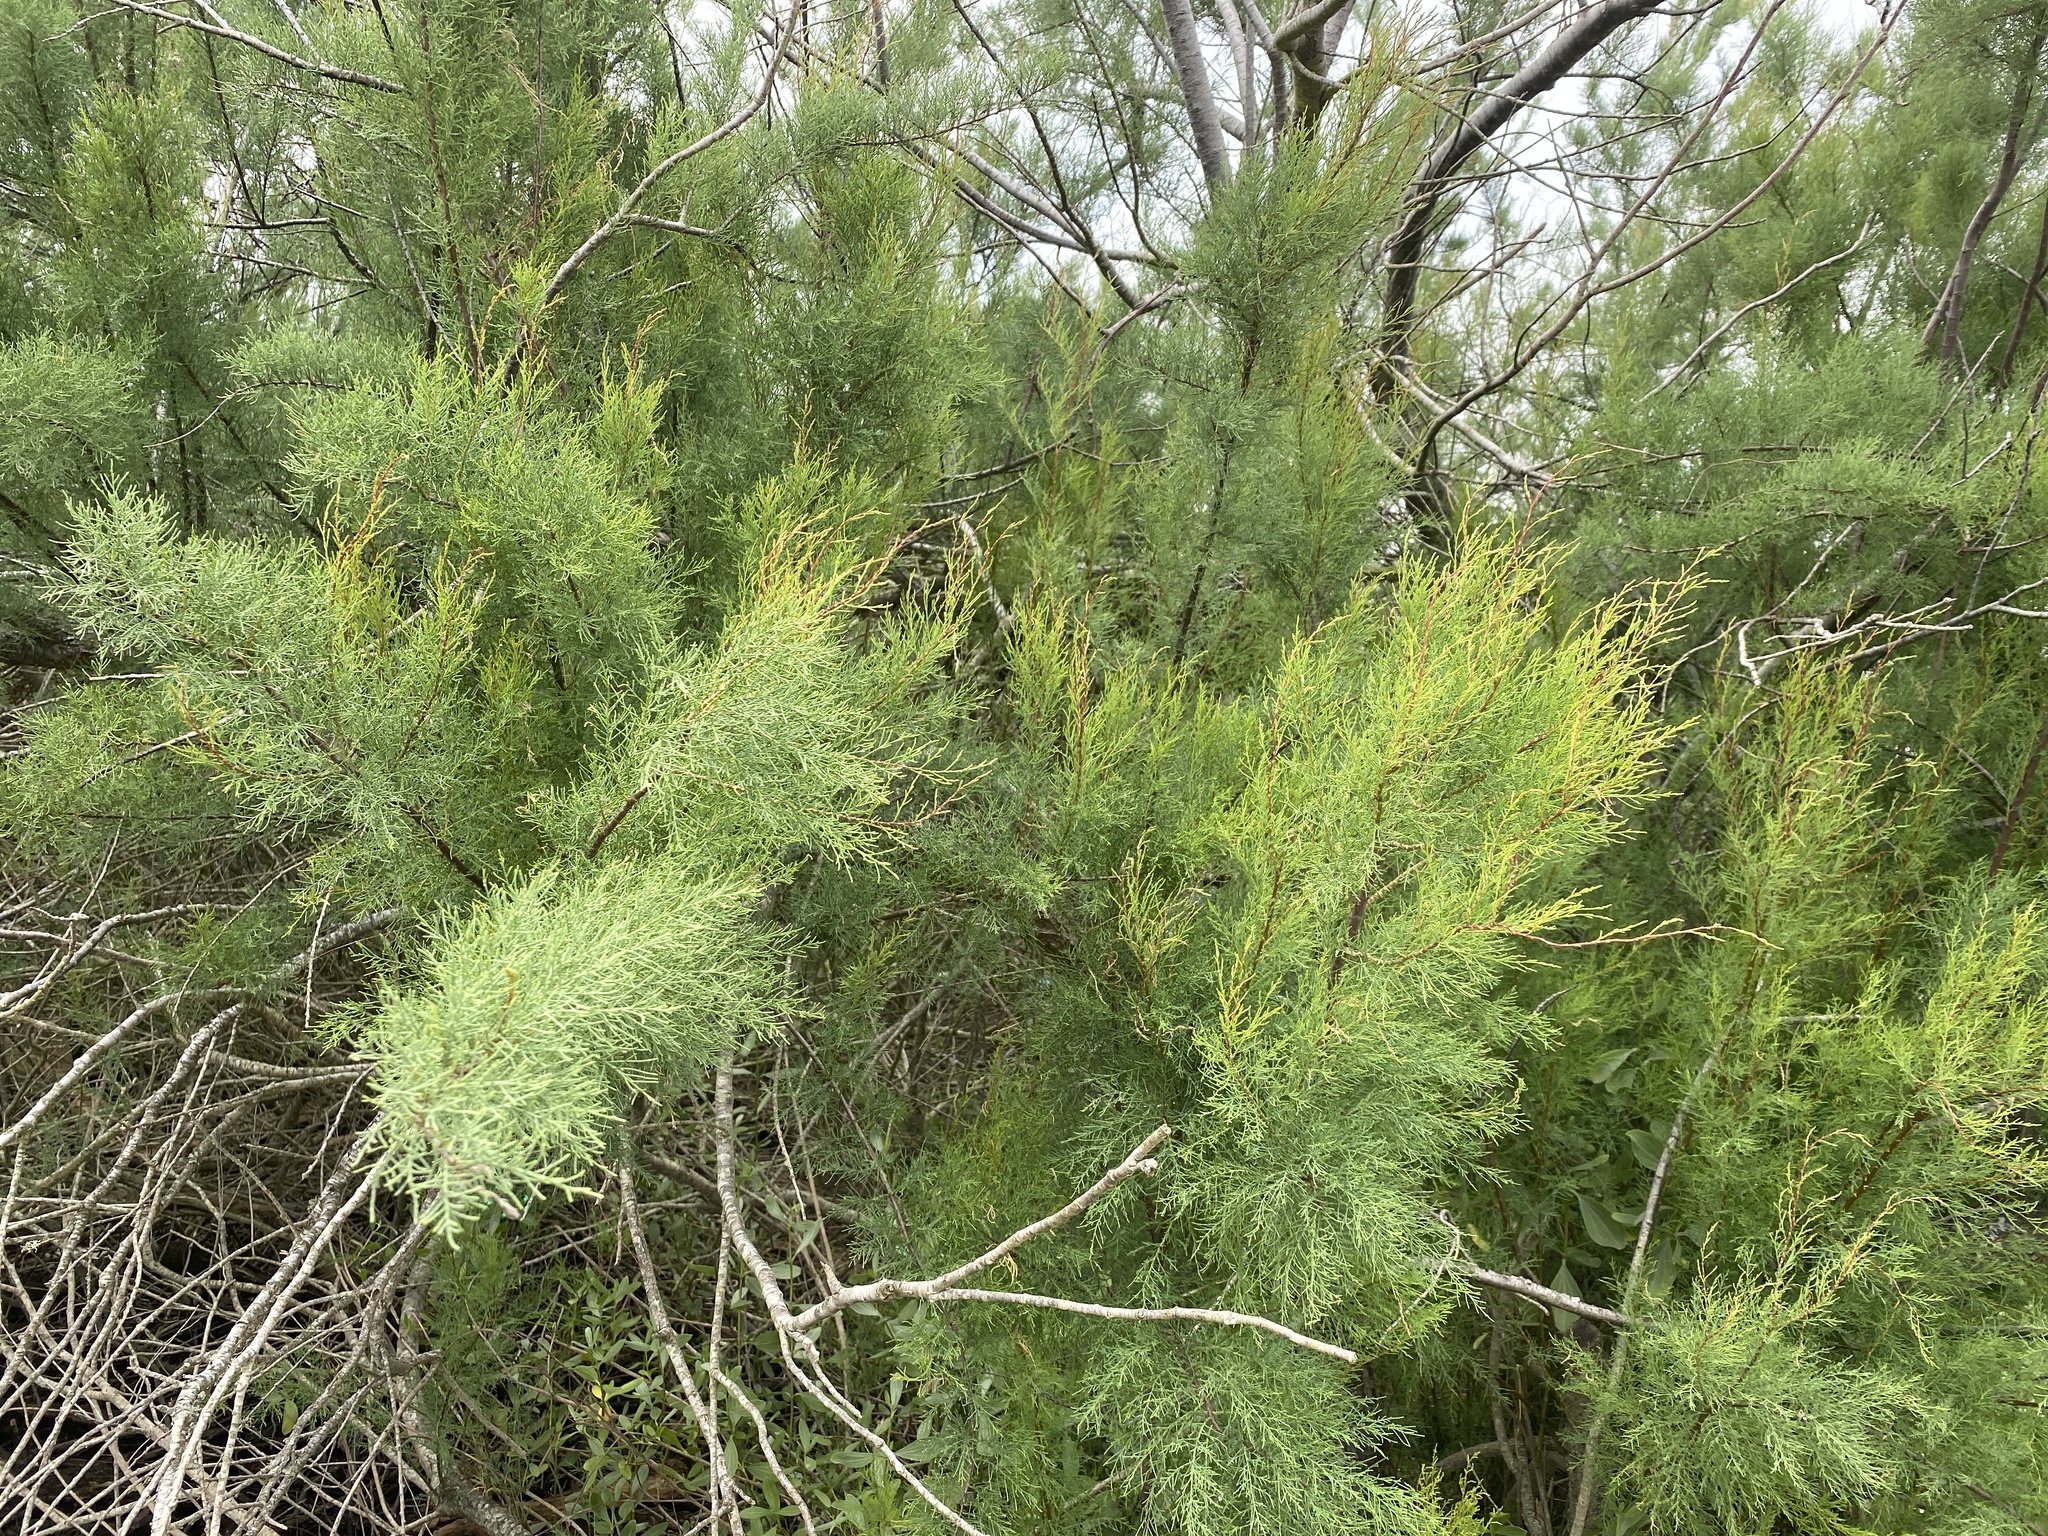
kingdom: Plantae
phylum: Tracheophyta
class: Magnoliopsida
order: Caryophyllales
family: Tamaricaceae
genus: Tamarix
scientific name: Tamarix ramosissima
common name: Pink tamarisk
